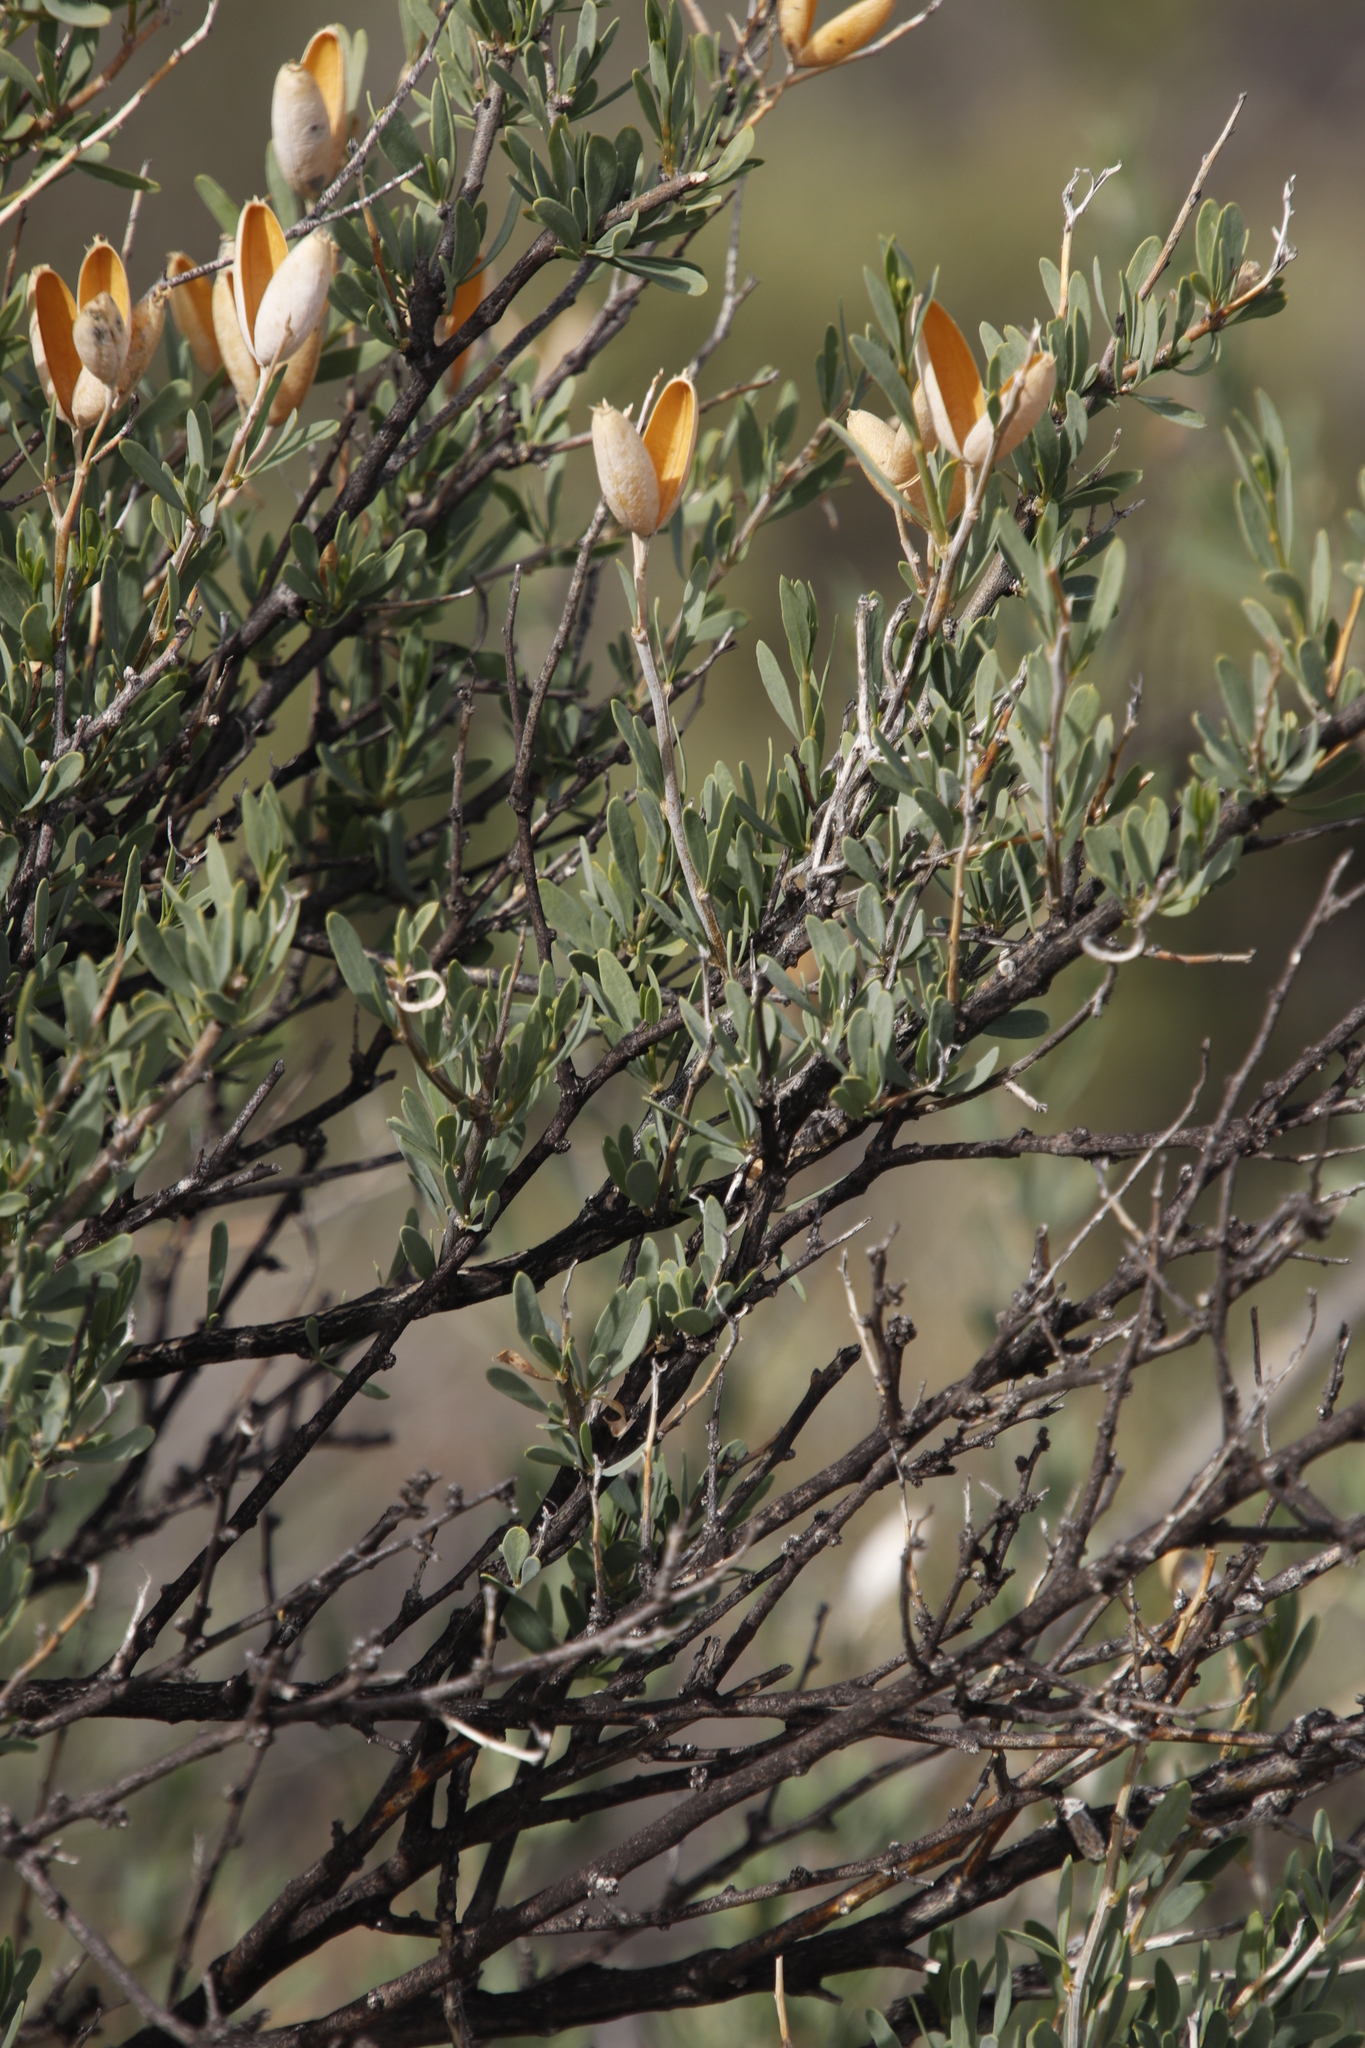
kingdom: Plantae
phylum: Tracheophyta
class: Magnoliopsida
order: Solanales
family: Montiniaceae
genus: Montinia
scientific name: Montinia caryophyllacea
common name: Wild clove-bush
